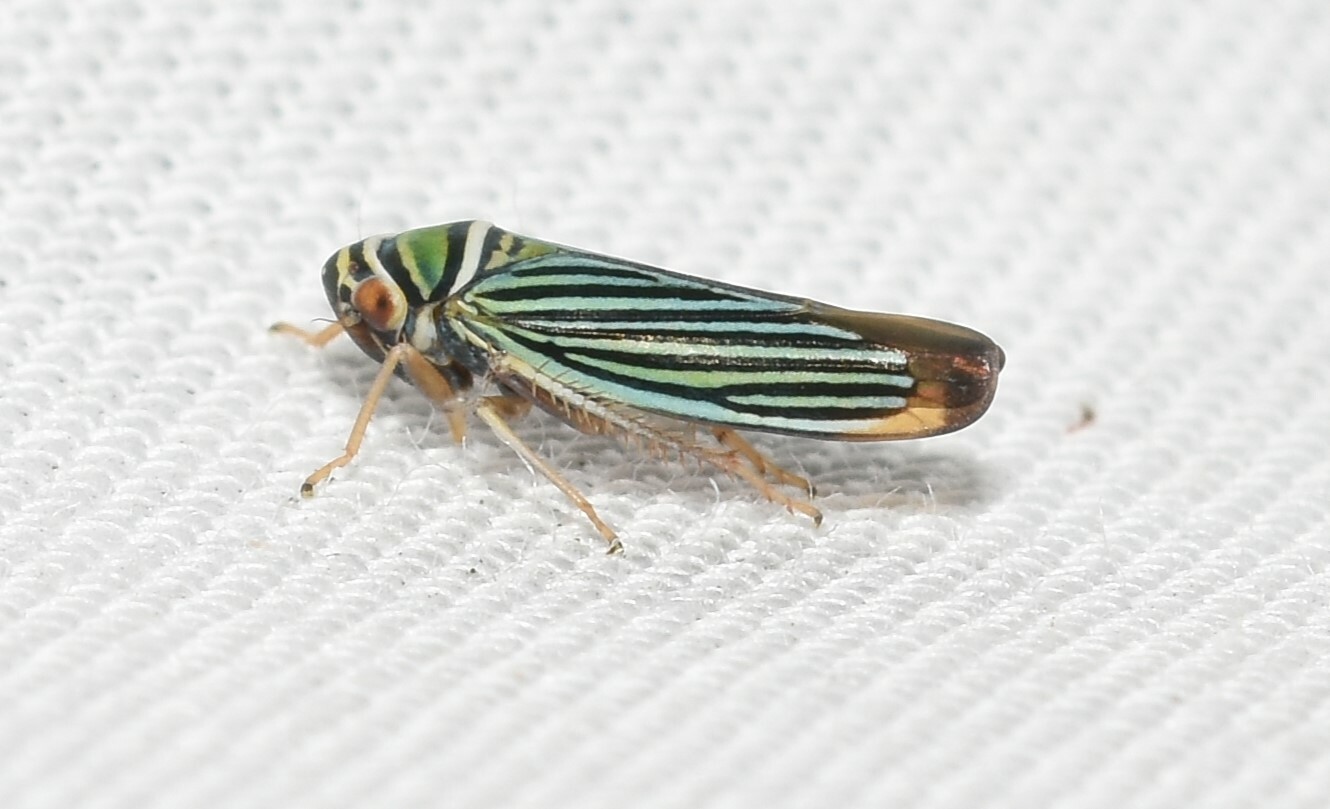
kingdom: Animalia
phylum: Arthropoda
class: Insecta
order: Hemiptera
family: Cicadellidae
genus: Tylozygus
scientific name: Tylozygus bifidus
